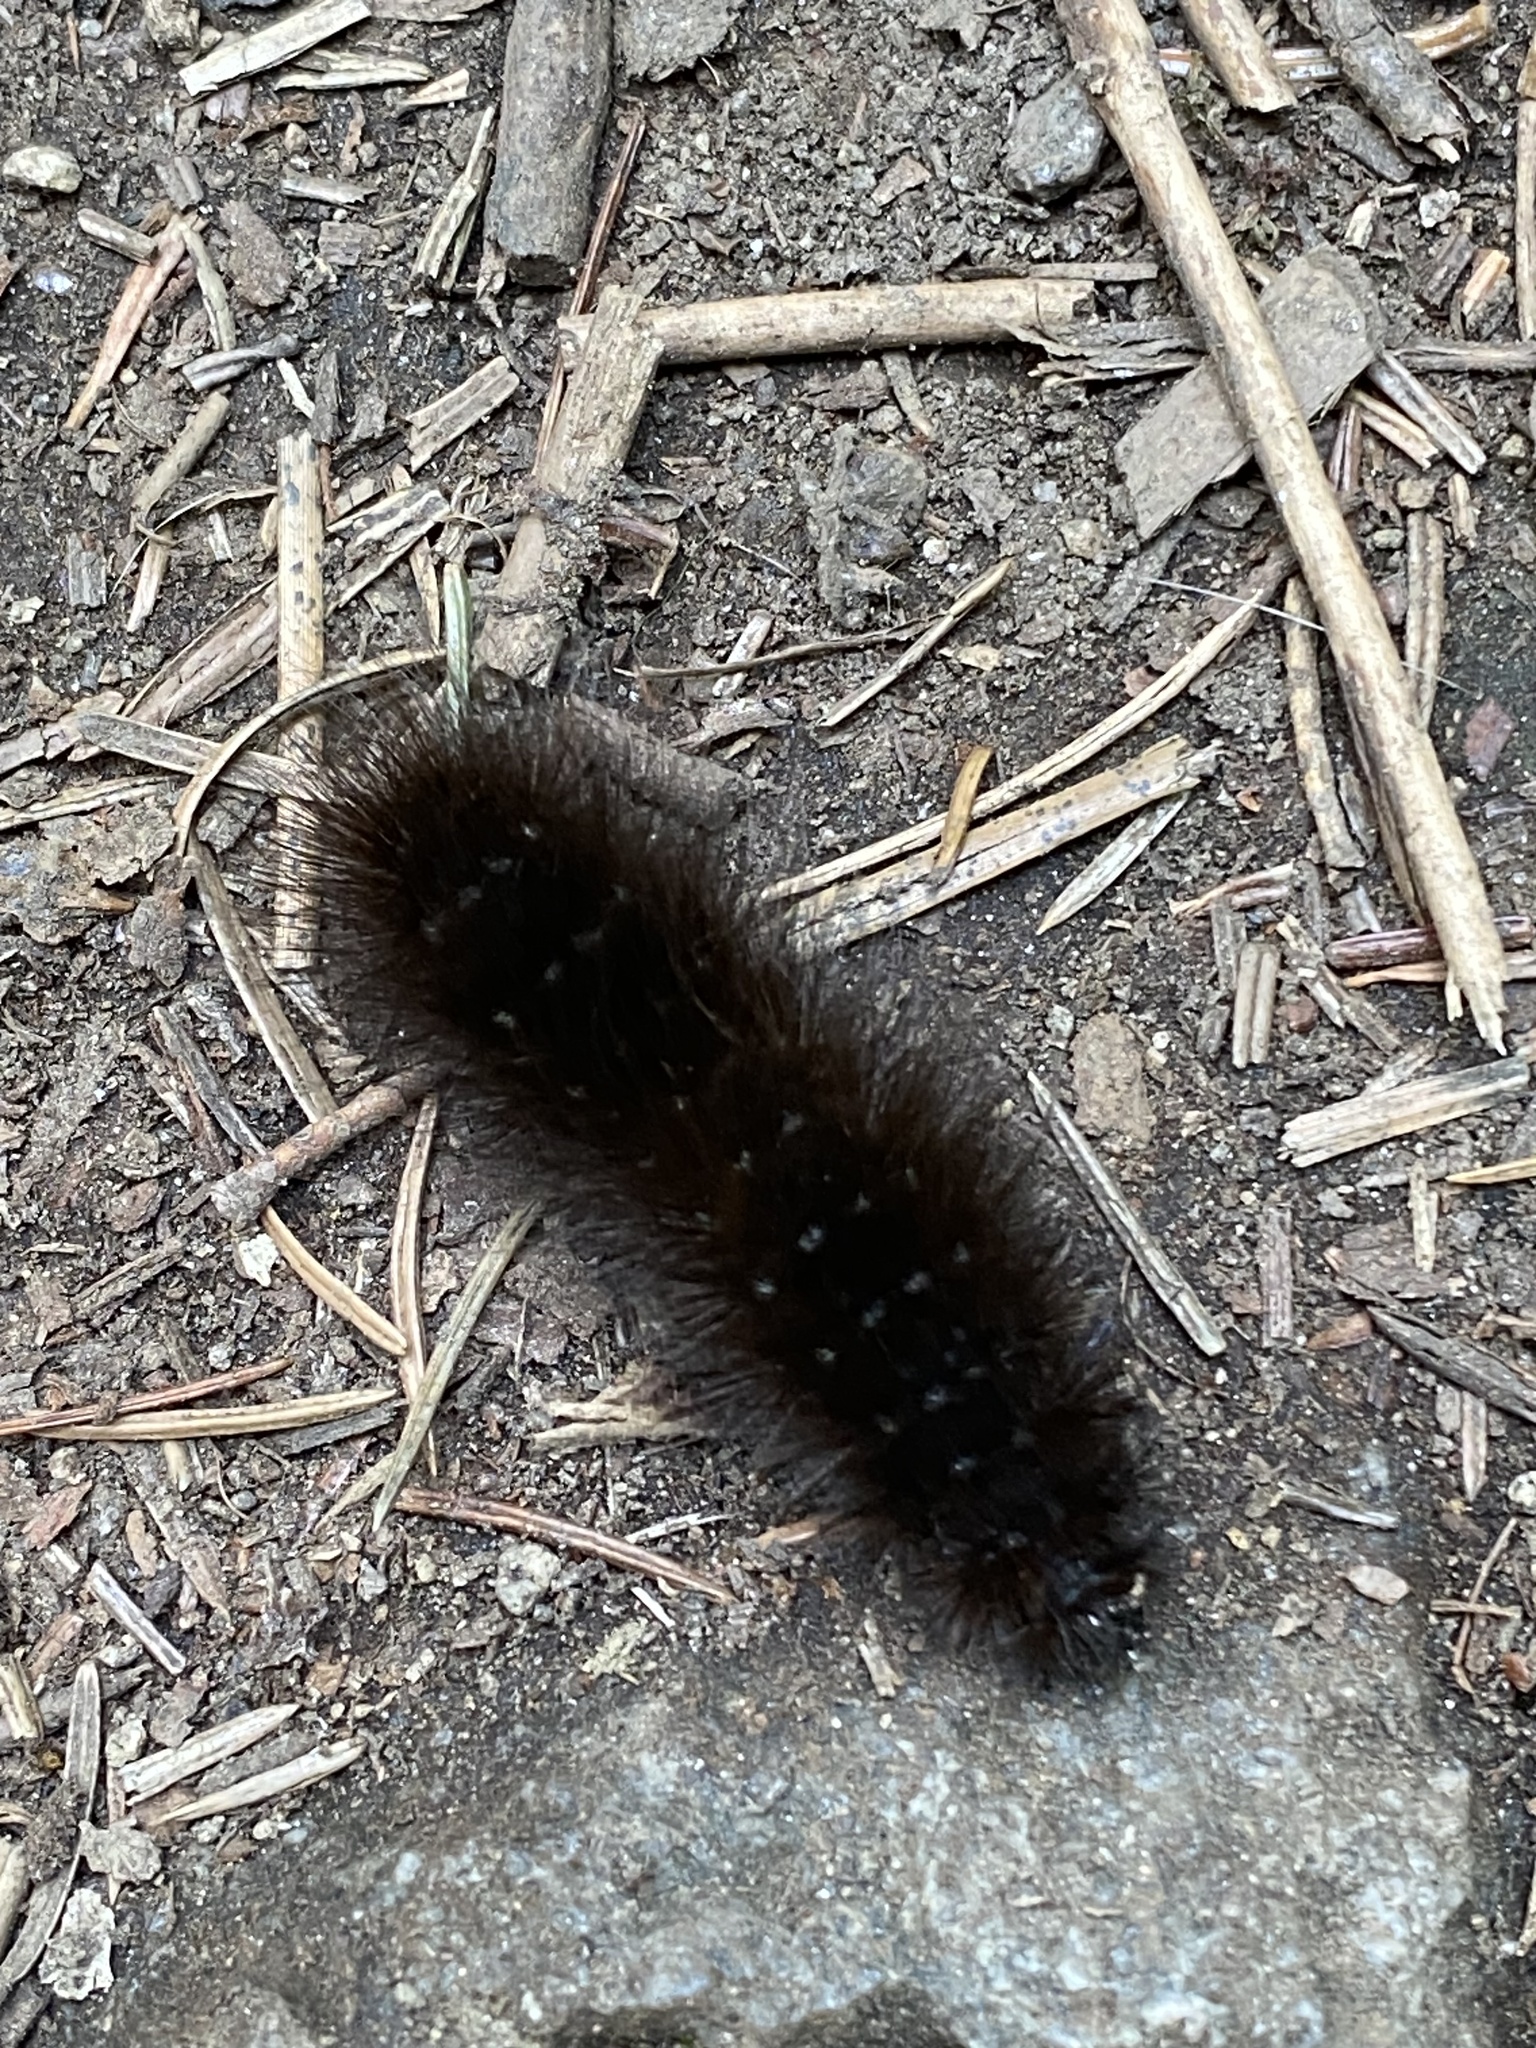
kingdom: Animalia
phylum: Arthropoda
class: Insecta
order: Lepidoptera
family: Erebidae
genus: Arctia
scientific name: Arctia parthenos
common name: St. lawrence tiger moth
